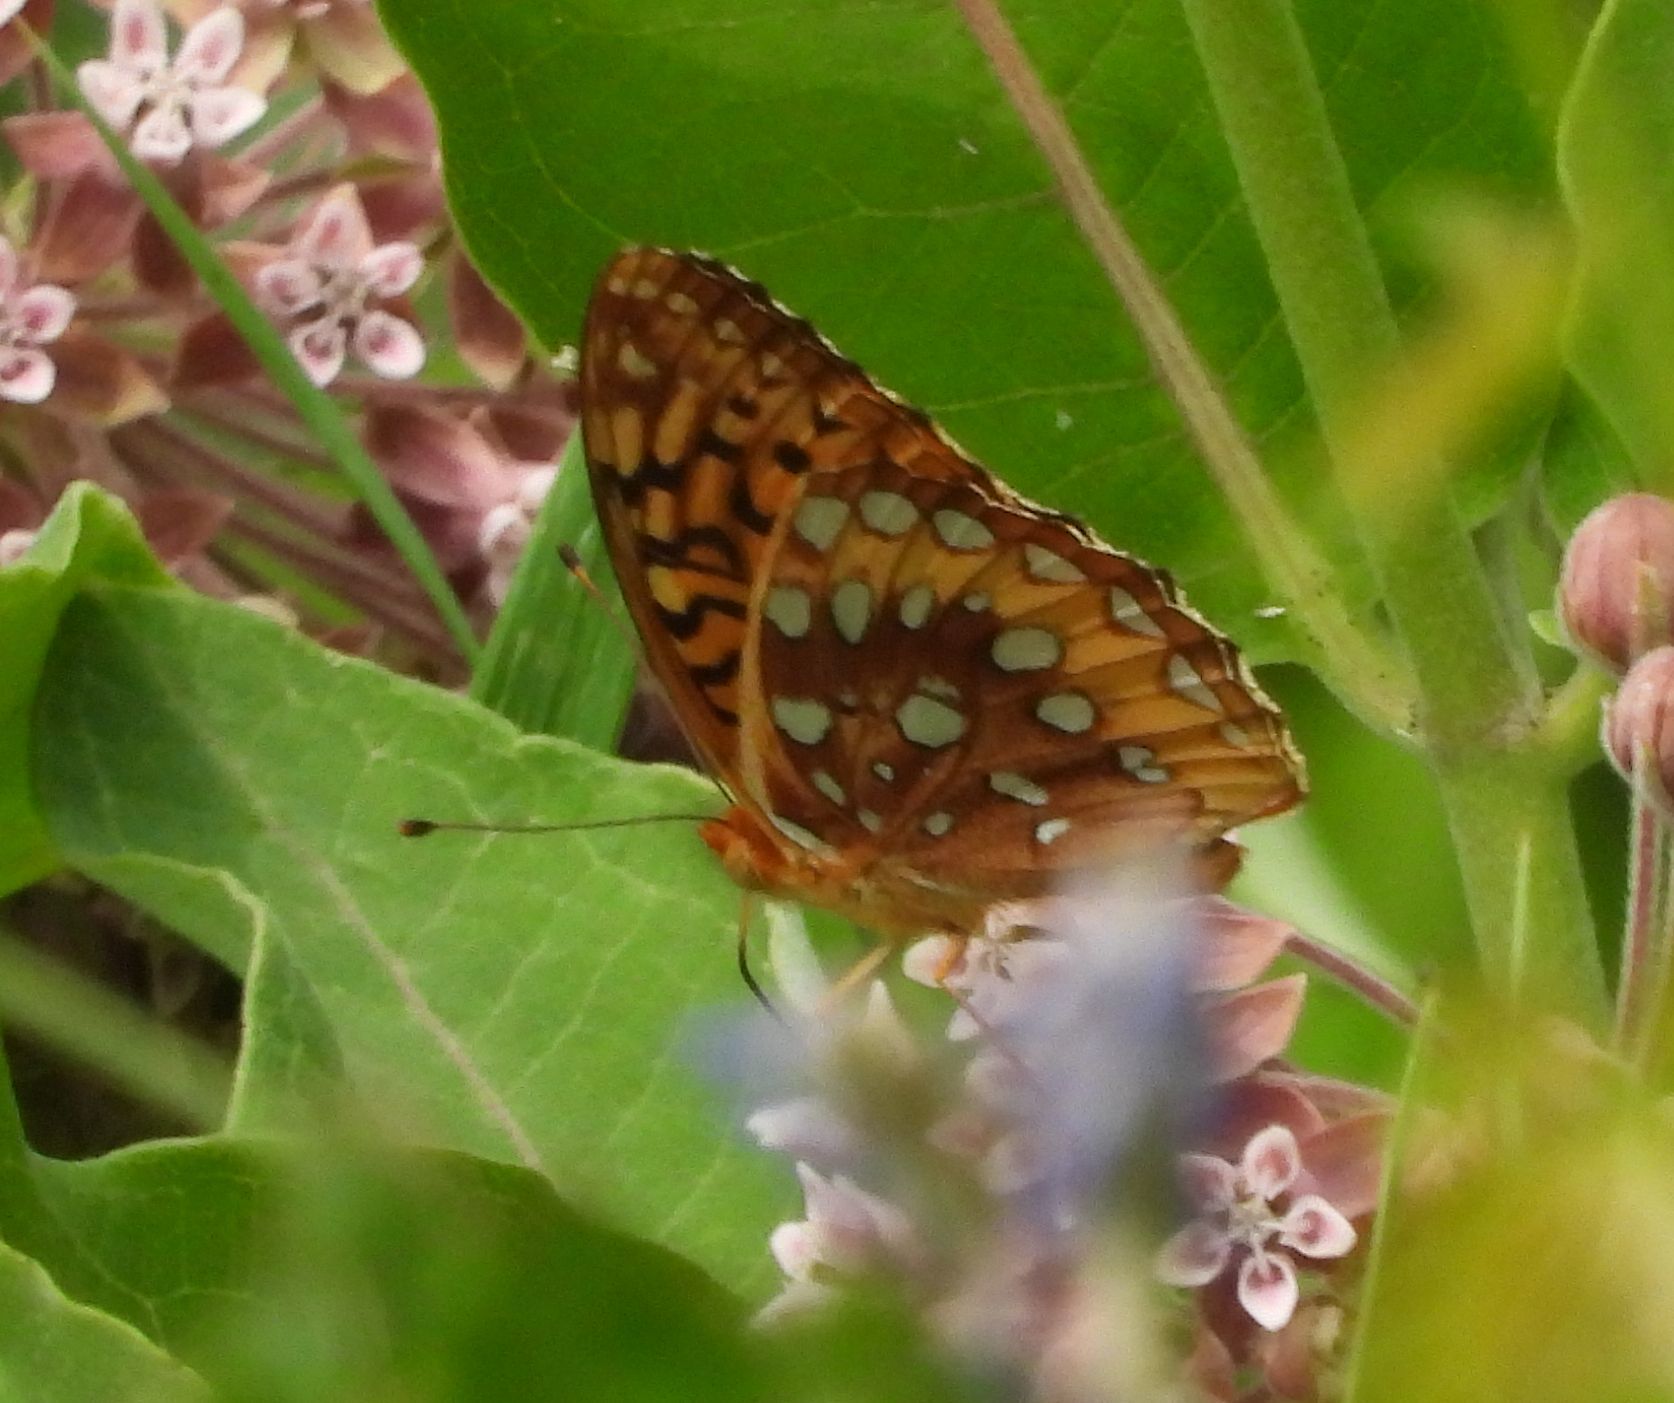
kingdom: Animalia
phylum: Arthropoda
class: Insecta
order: Lepidoptera
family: Nymphalidae
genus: Speyeria
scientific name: Speyeria cybele
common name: Great spangled fritillary
